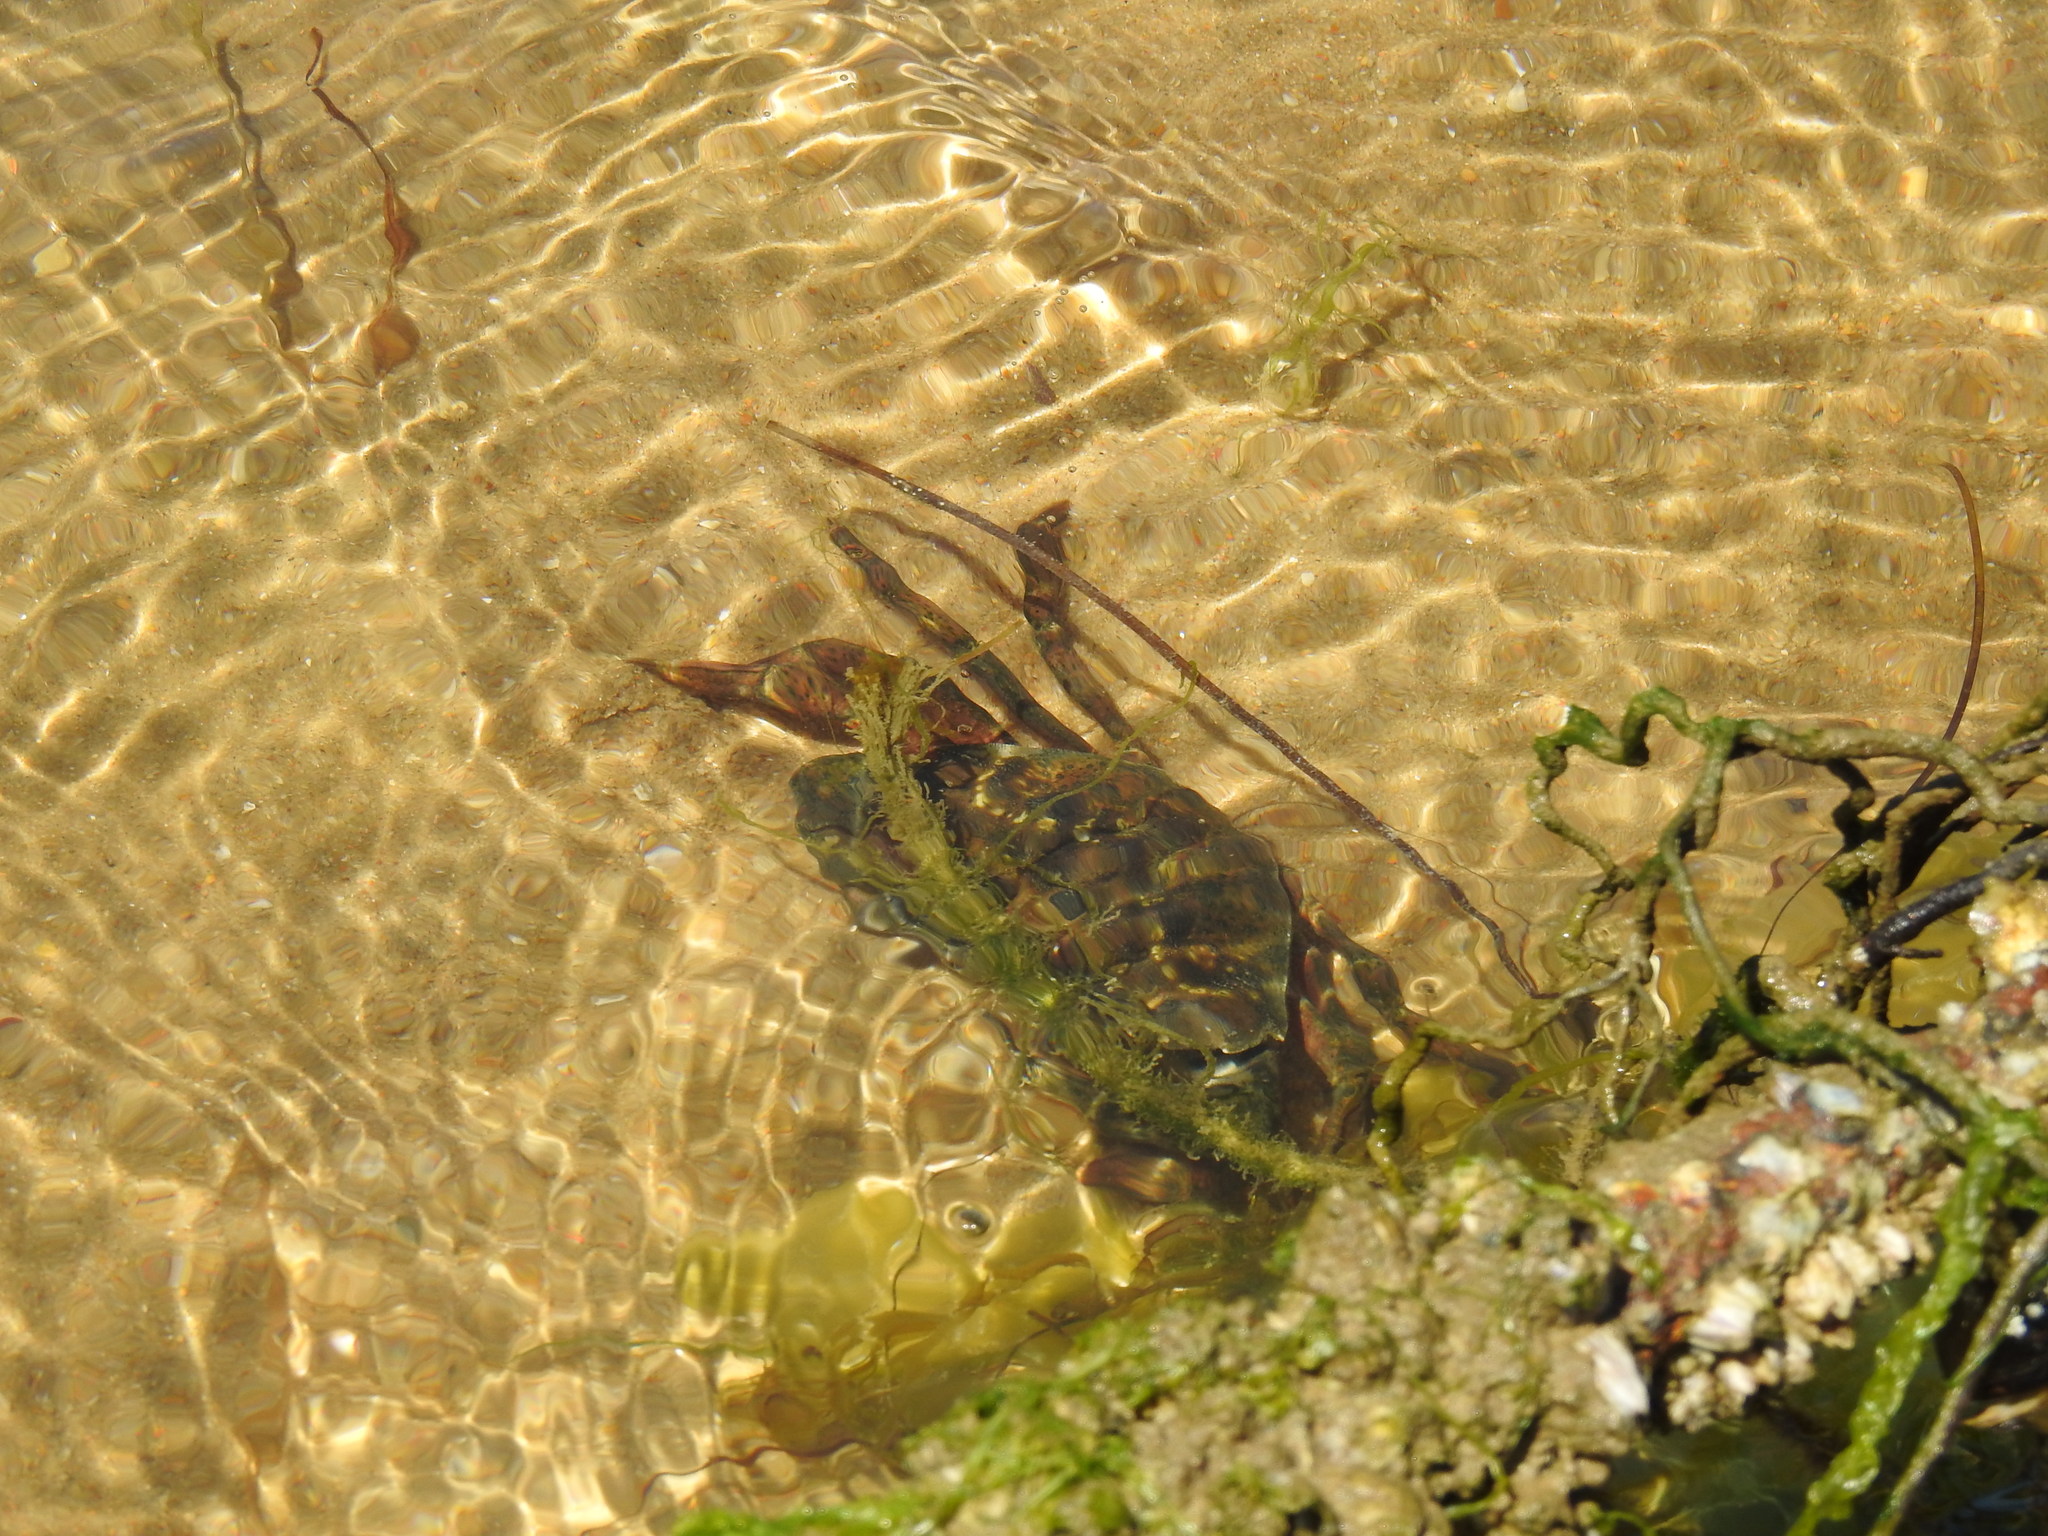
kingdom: Animalia
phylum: Arthropoda
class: Malacostraca
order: Decapoda
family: Carcinidae
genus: Carcinus
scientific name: Carcinus maenas
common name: European green crab
